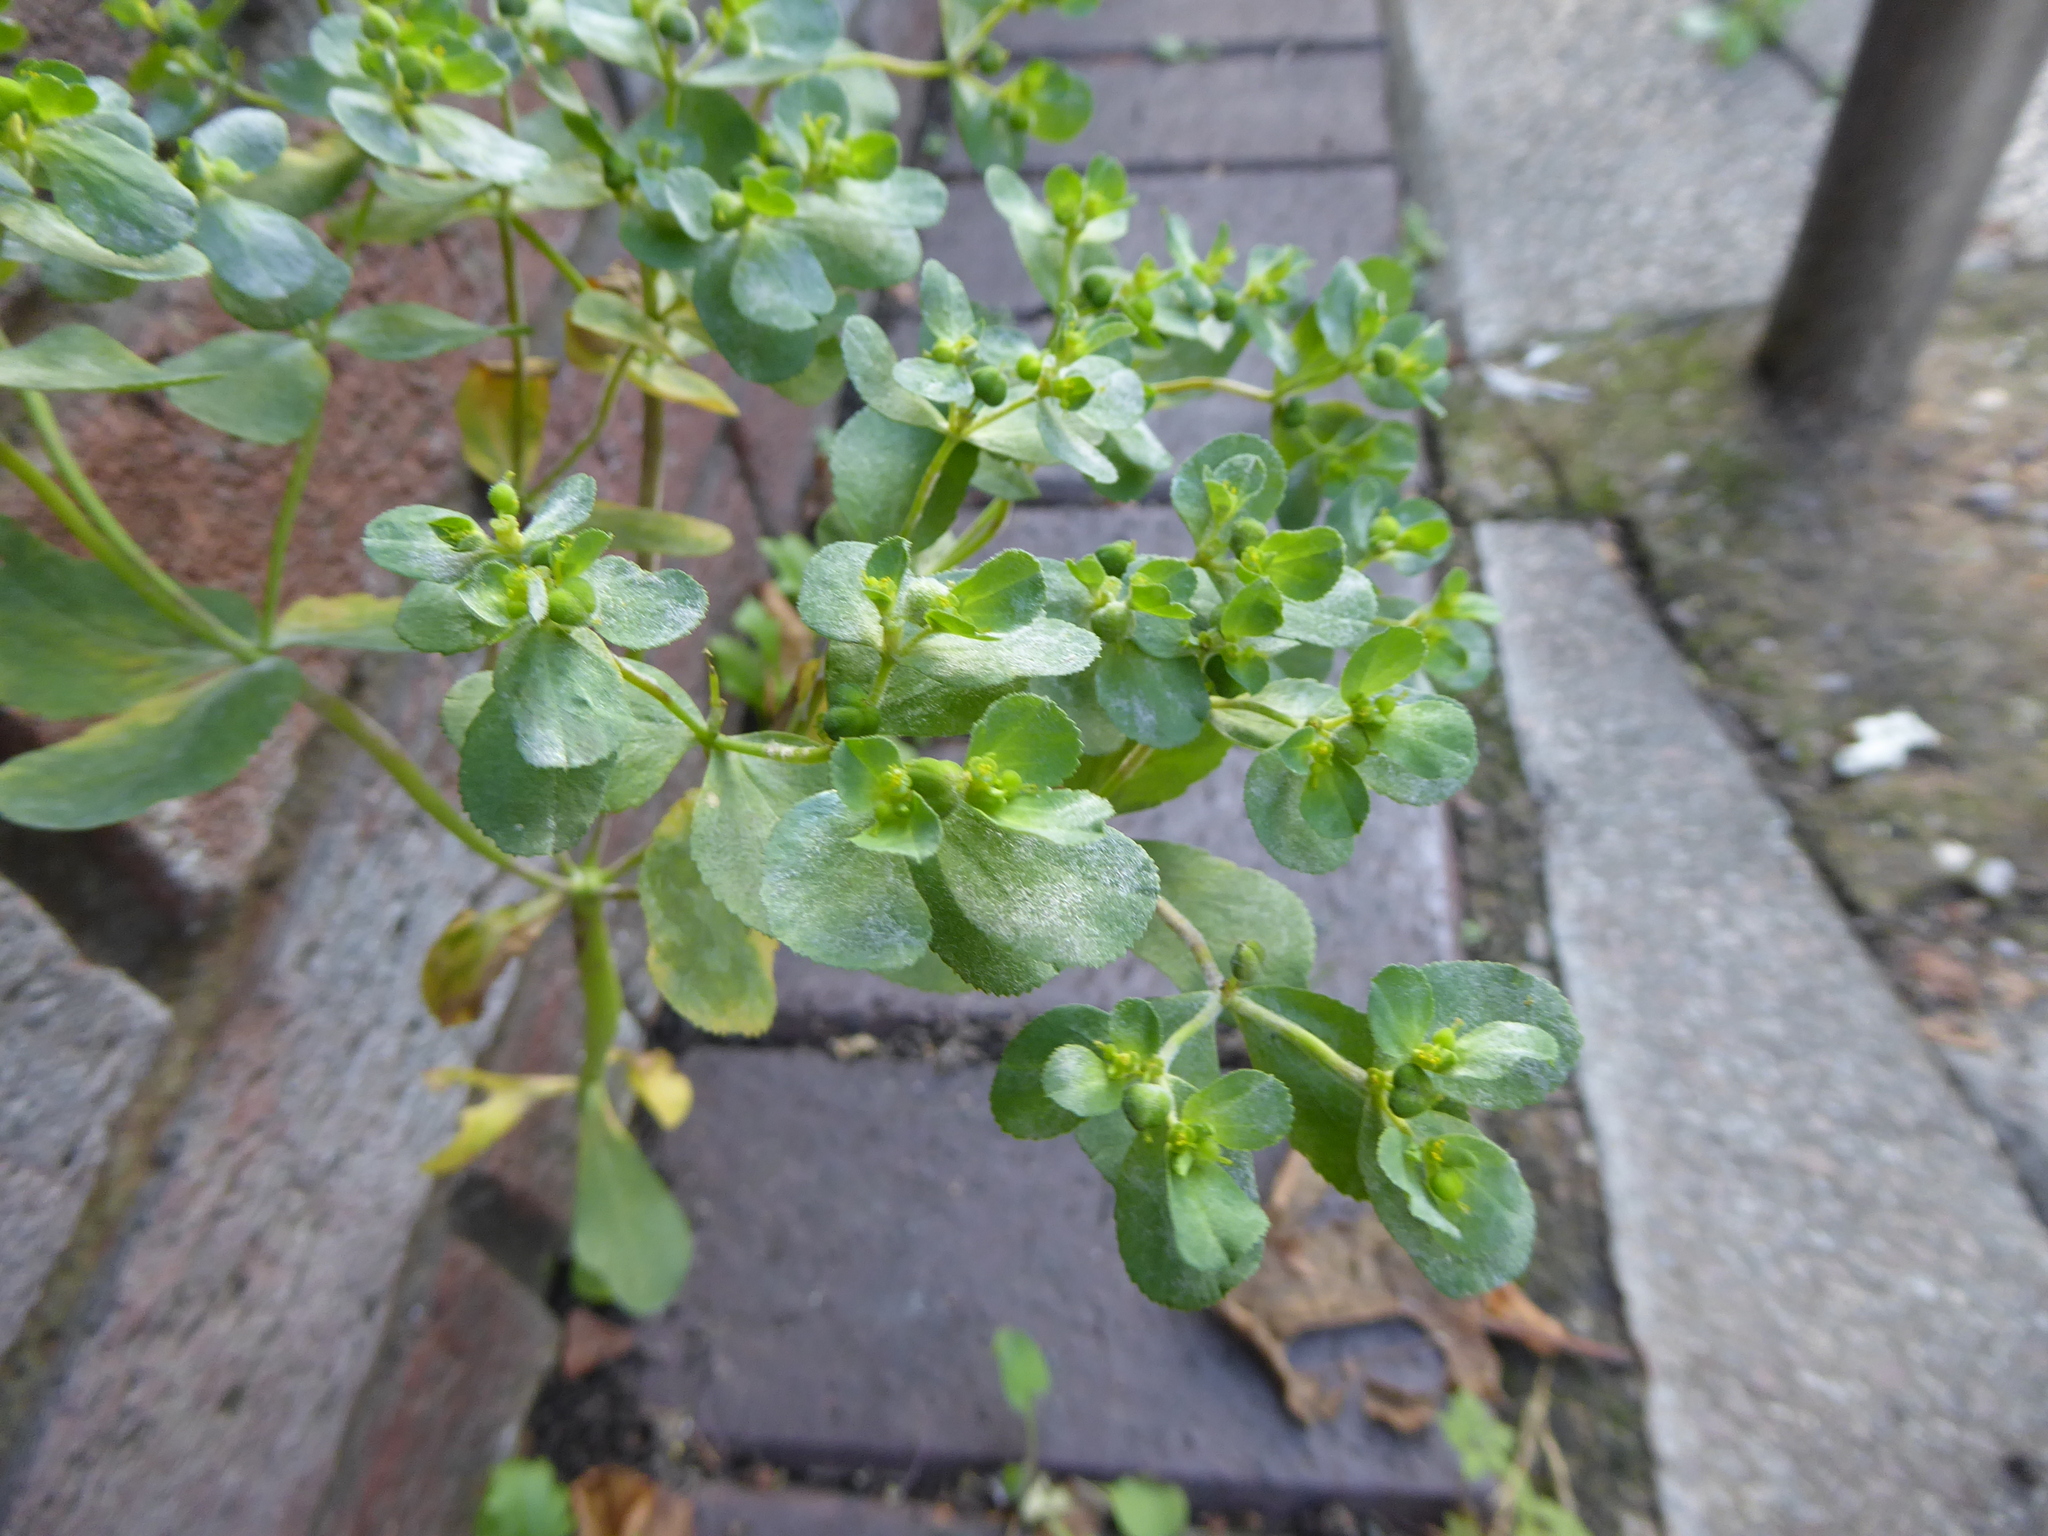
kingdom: Plantae
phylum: Tracheophyta
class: Magnoliopsida
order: Malpighiales
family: Euphorbiaceae
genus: Euphorbia
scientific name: Euphorbia helioscopia
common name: Sun spurge
